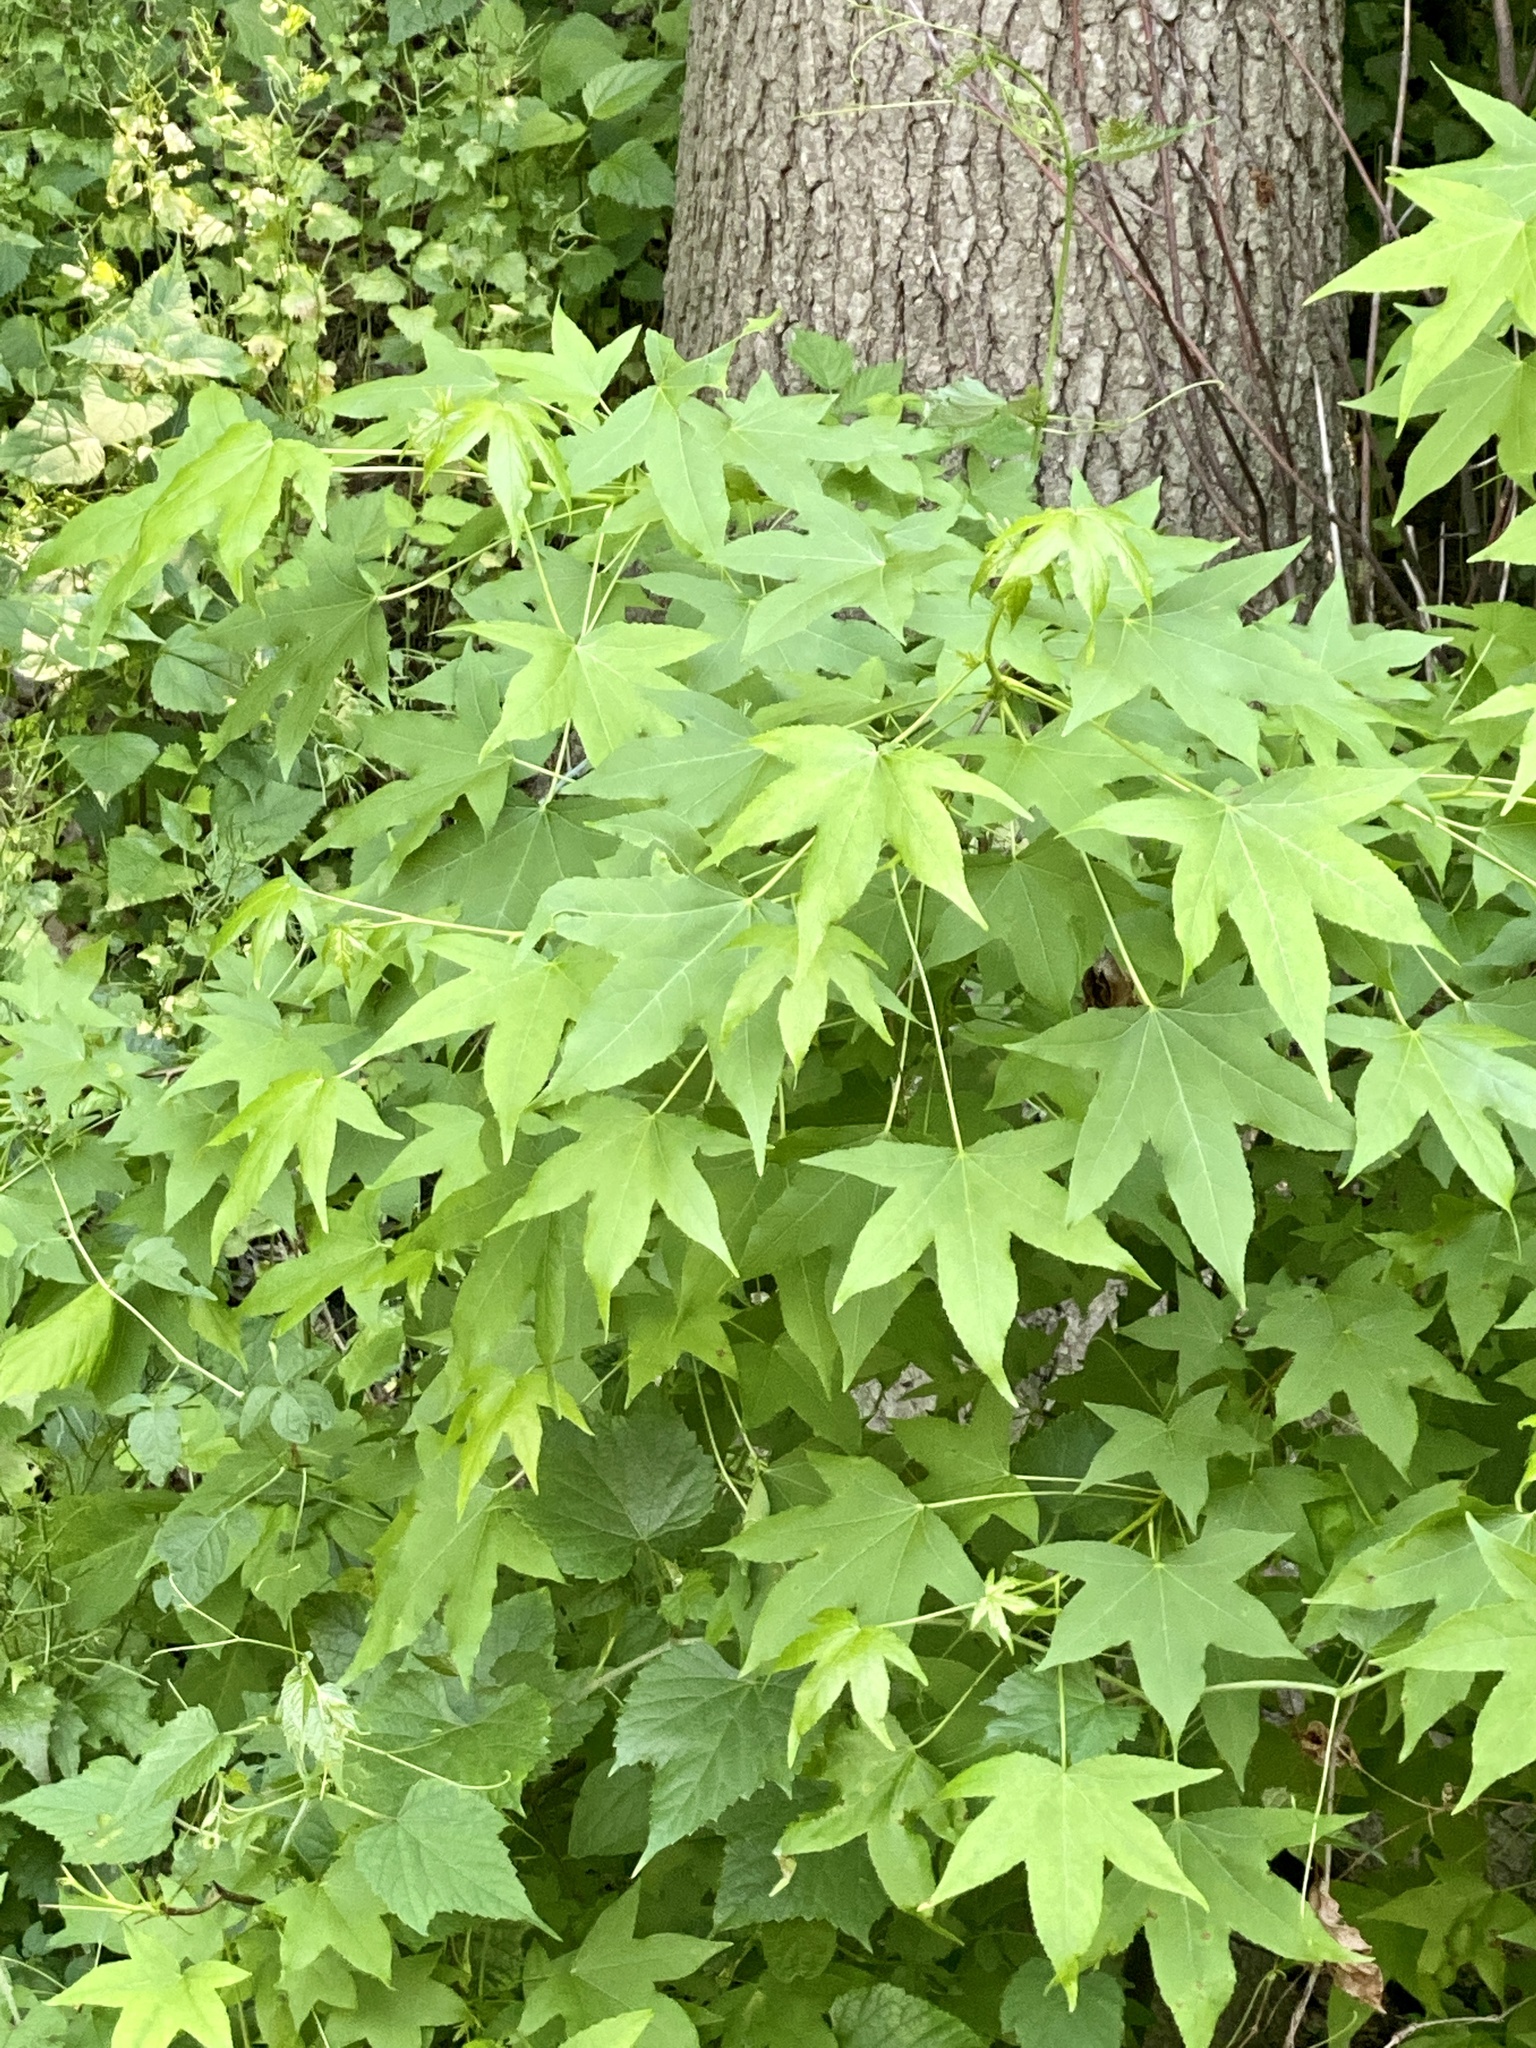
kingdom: Plantae
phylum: Tracheophyta
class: Magnoliopsida
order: Saxifragales
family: Altingiaceae
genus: Liquidambar
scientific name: Liquidambar styraciflua
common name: Sweet gum
